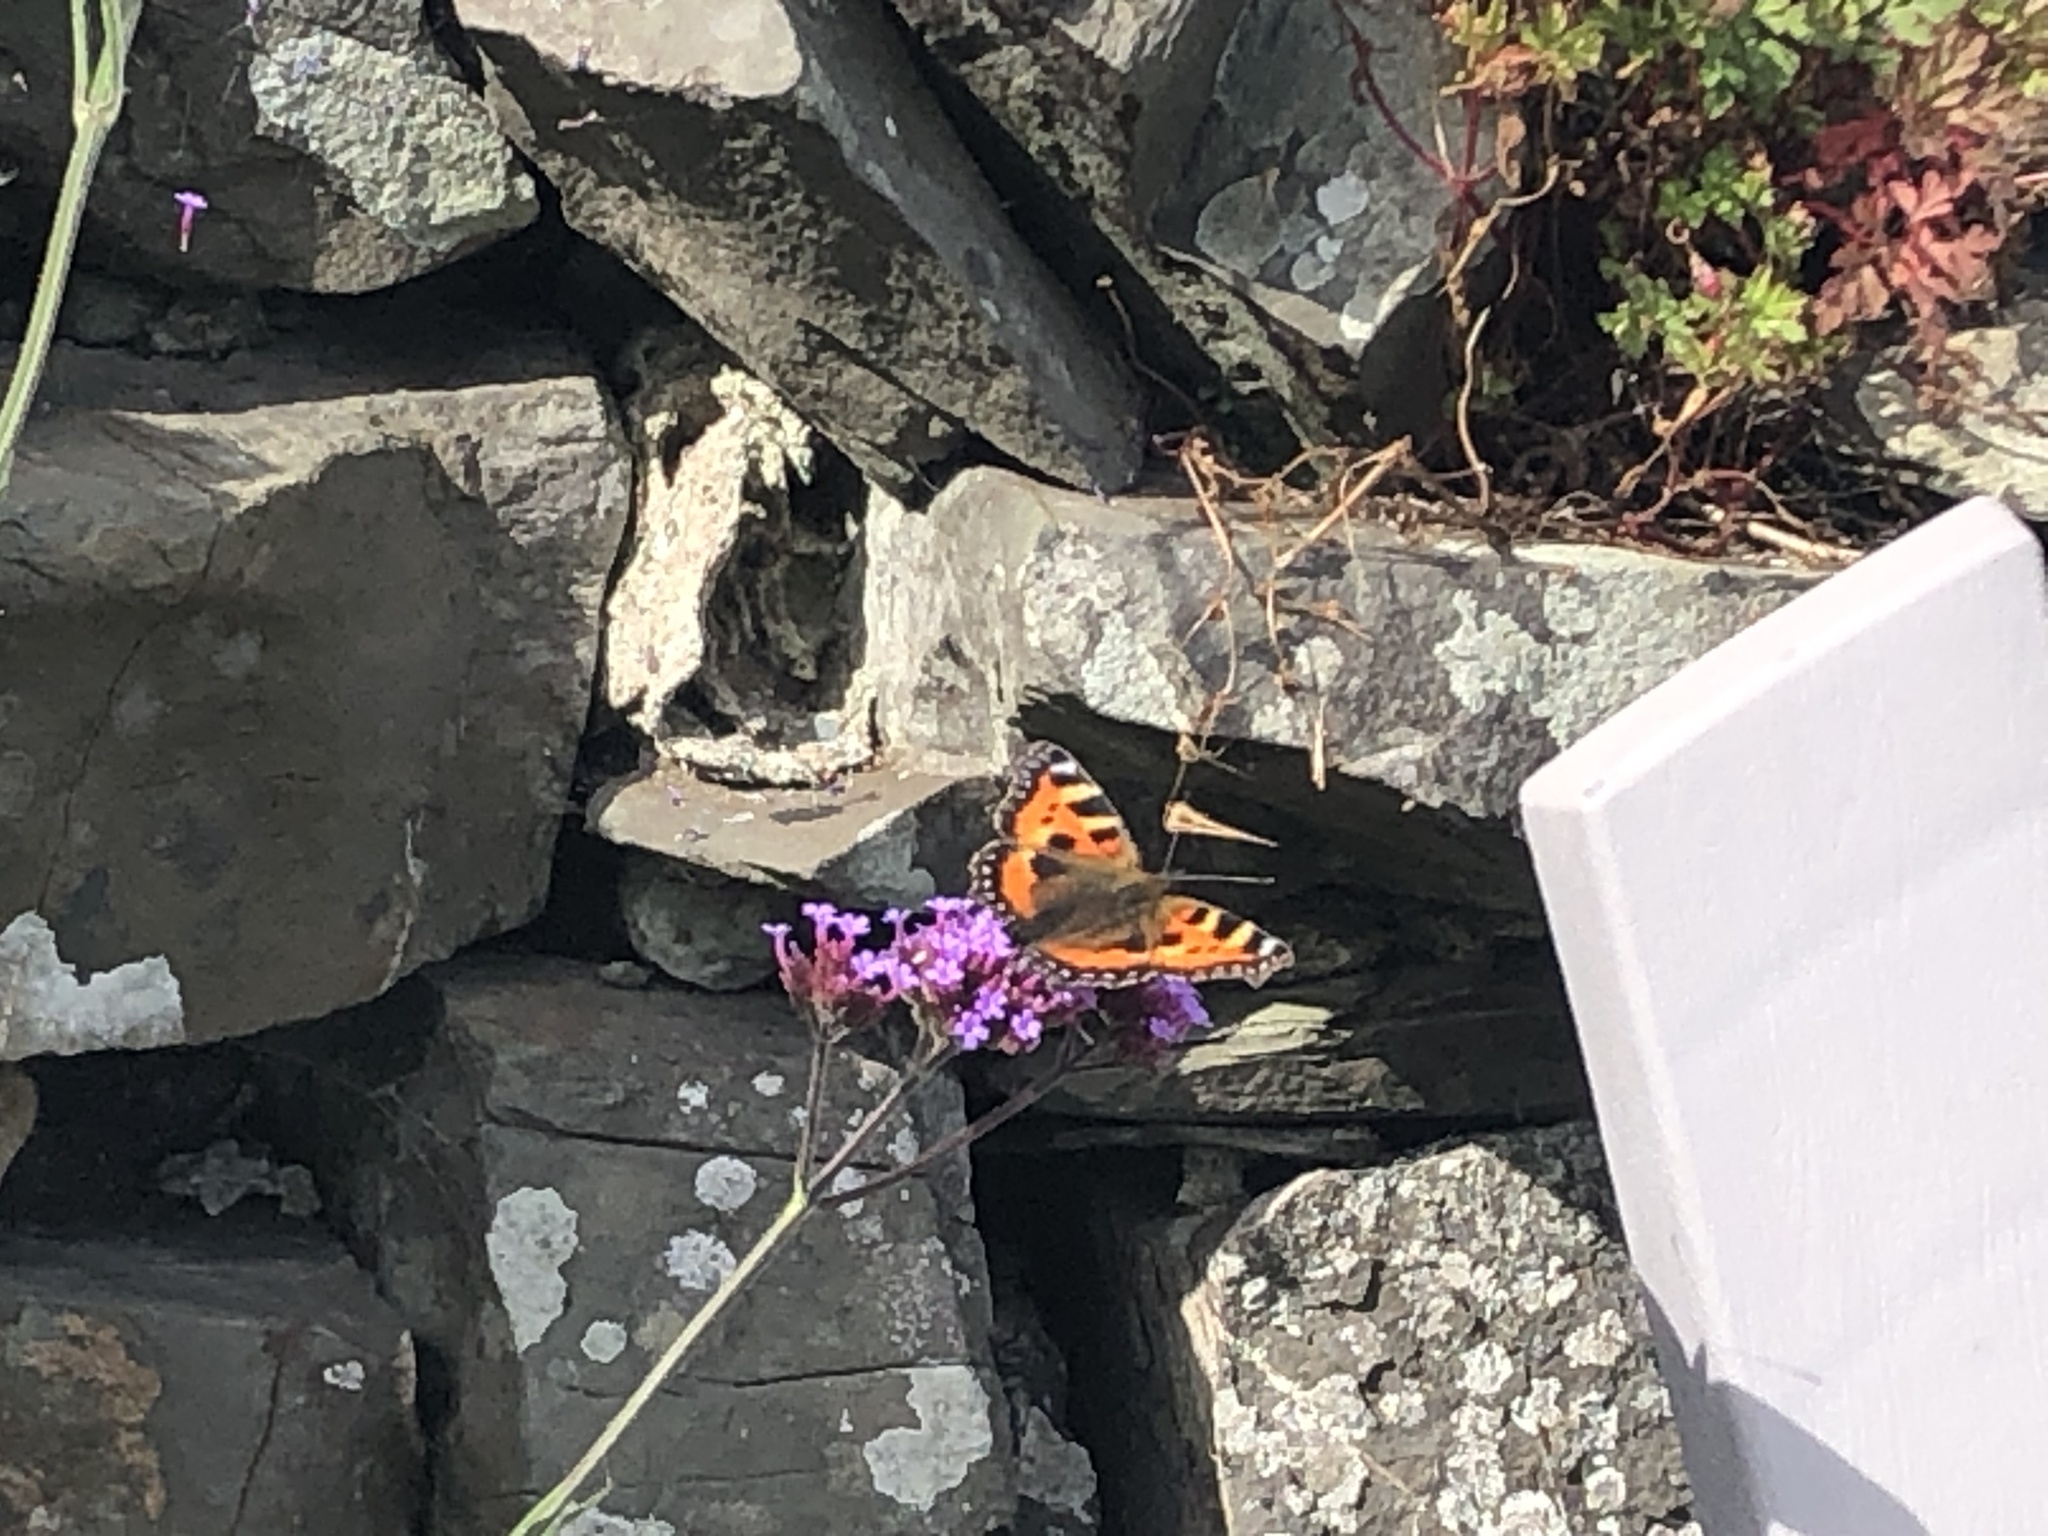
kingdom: Animalia
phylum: Arthropoda
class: Insecta
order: Lepidoptera
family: Nymphalidae
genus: Aglais
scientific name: Aglais urticae
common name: Small tortoiseshell
